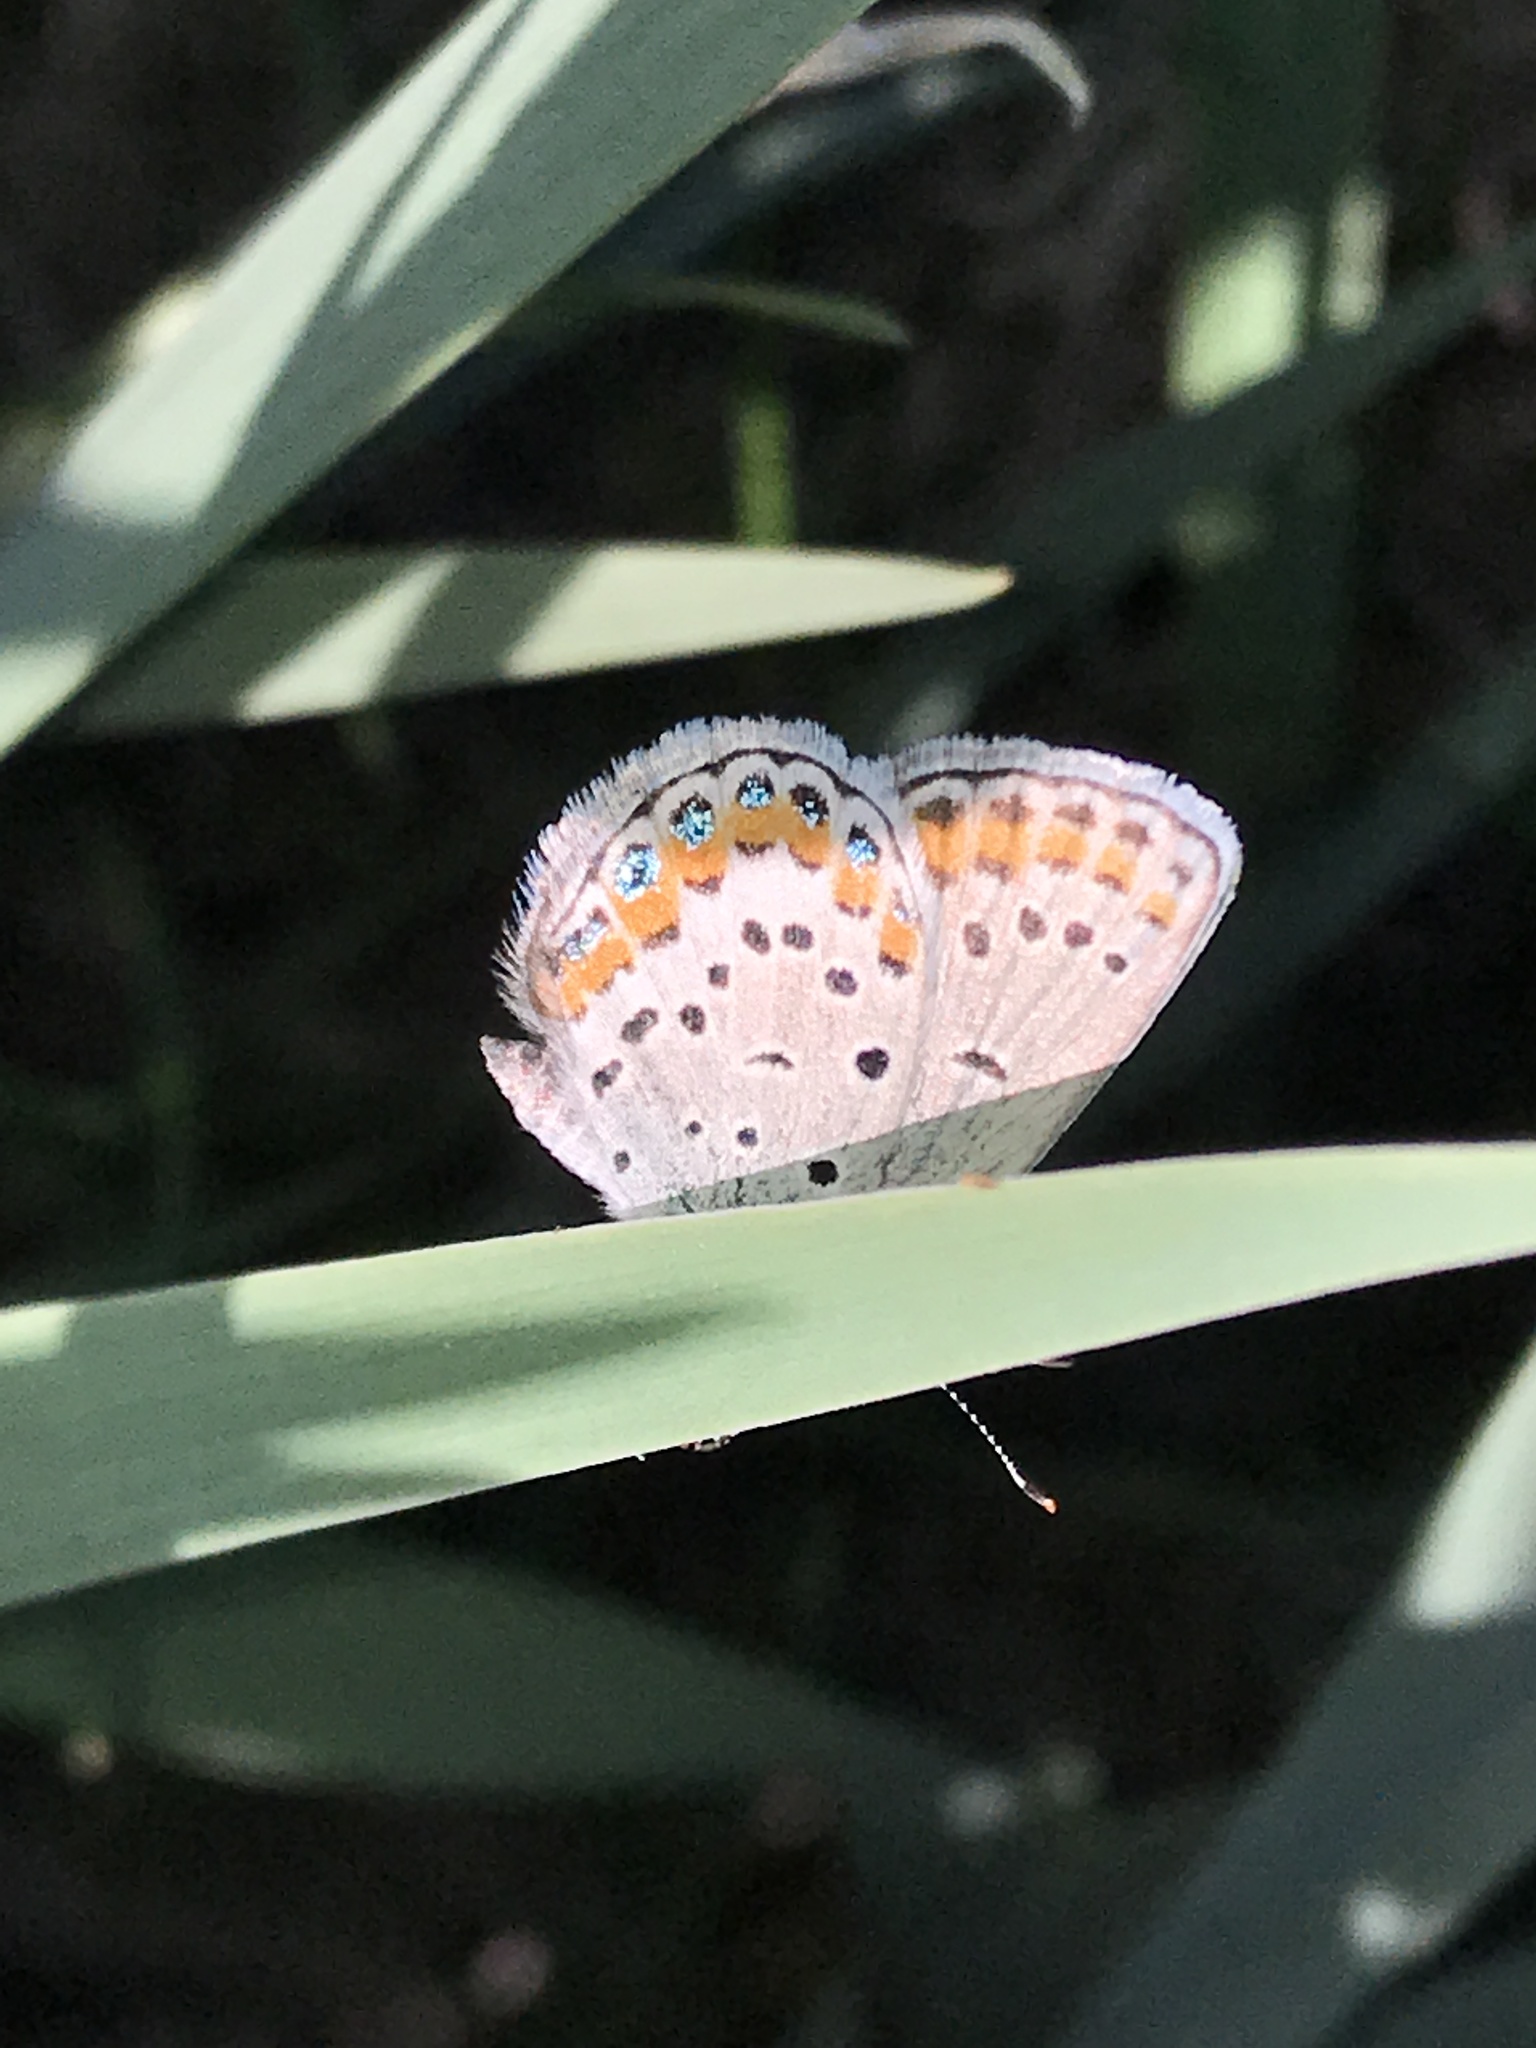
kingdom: Animalia
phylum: Arthropoda
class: Insecta
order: Lepidoptera
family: Lycaenidae
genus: Lycaeides
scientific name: Lycaeides melissa
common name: Melissa blue
